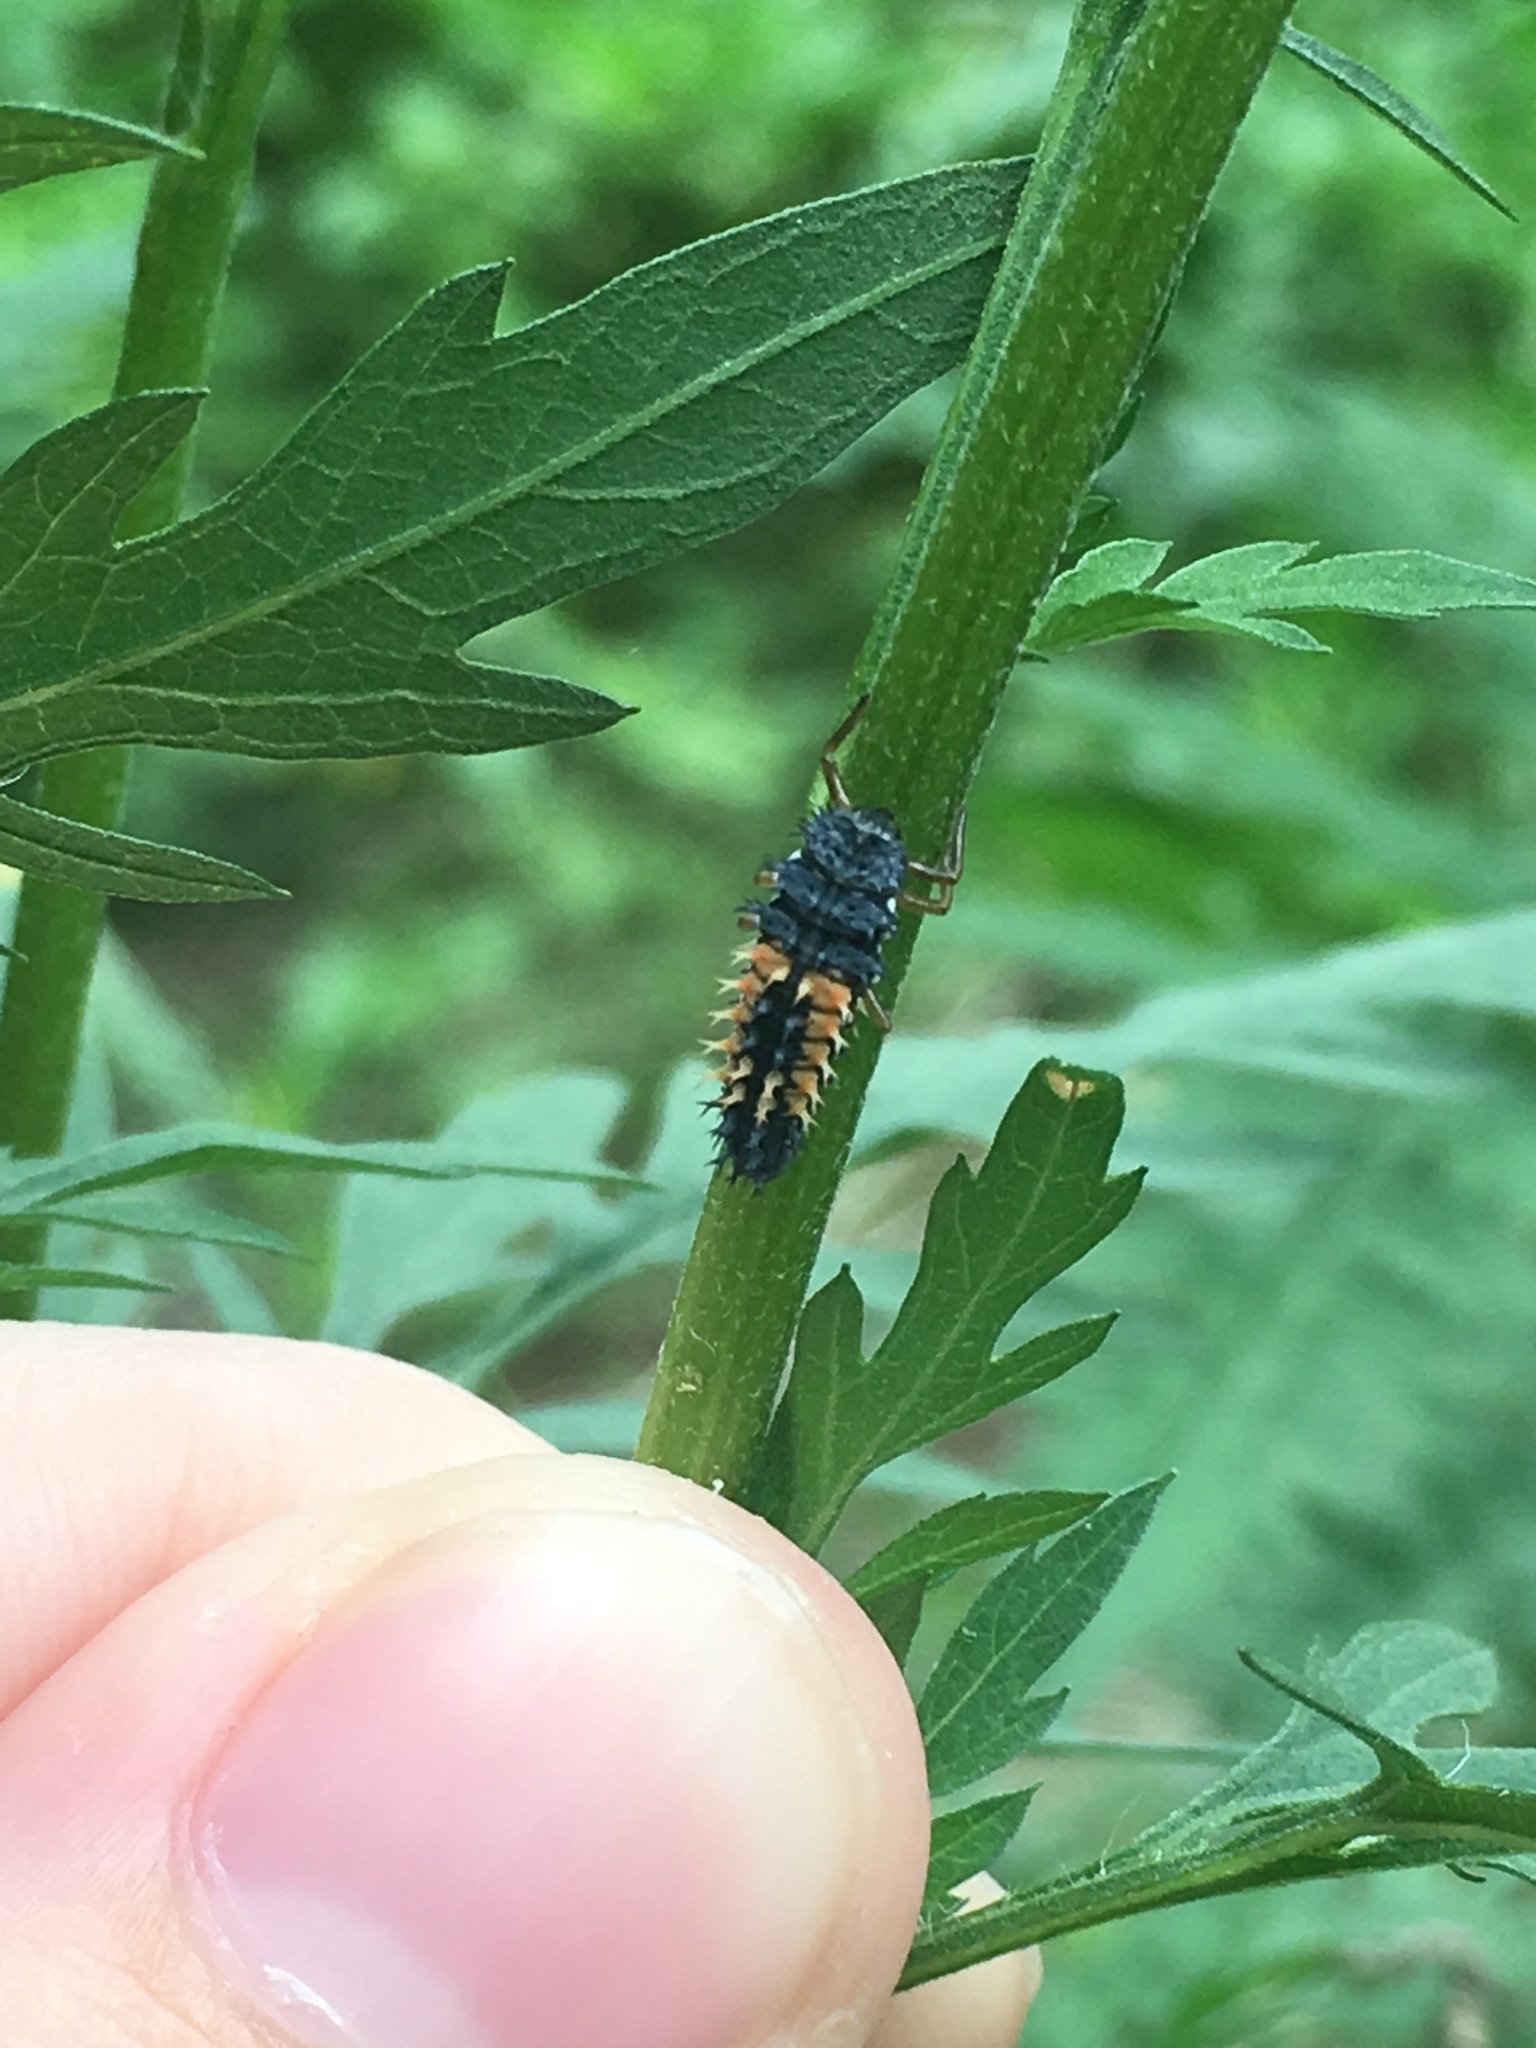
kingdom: Animalia
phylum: Arthropoda
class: Insecta
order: Coleoptera
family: Coccinellidae
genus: Harmonia
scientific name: Harmonia axyridis
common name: Harlequin ladybird
